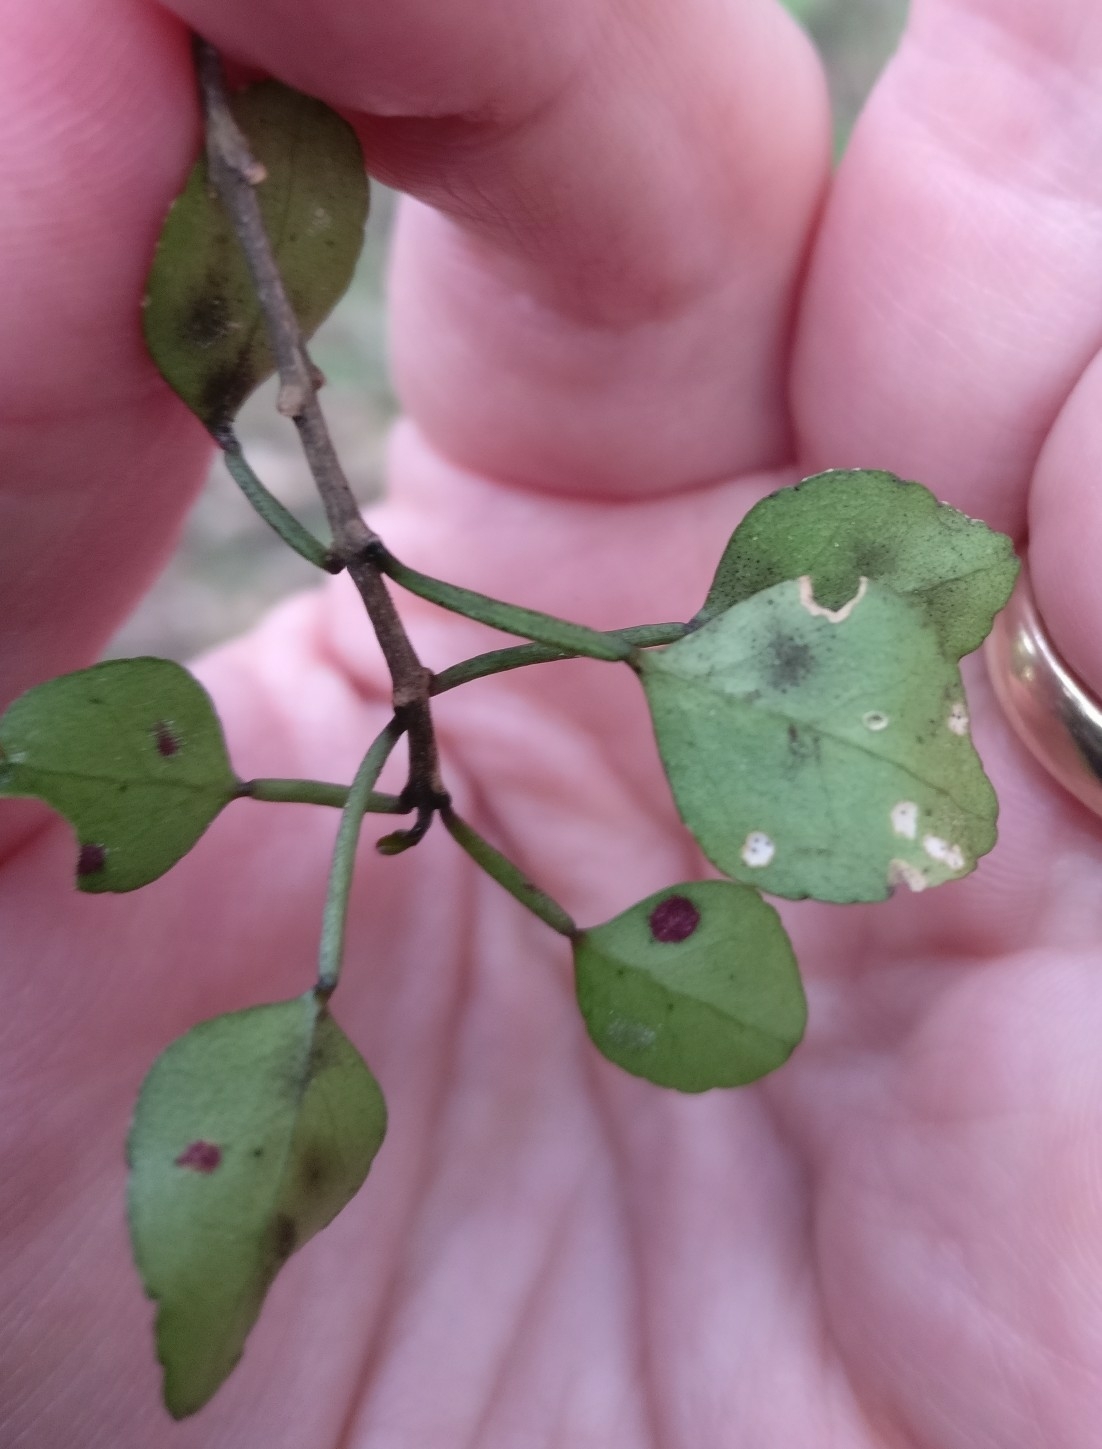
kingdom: Plantae
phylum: Tracheophyta
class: Magnoliopsida
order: Sapindales
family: Rutaceae
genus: Melicope
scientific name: Melicope simplex
